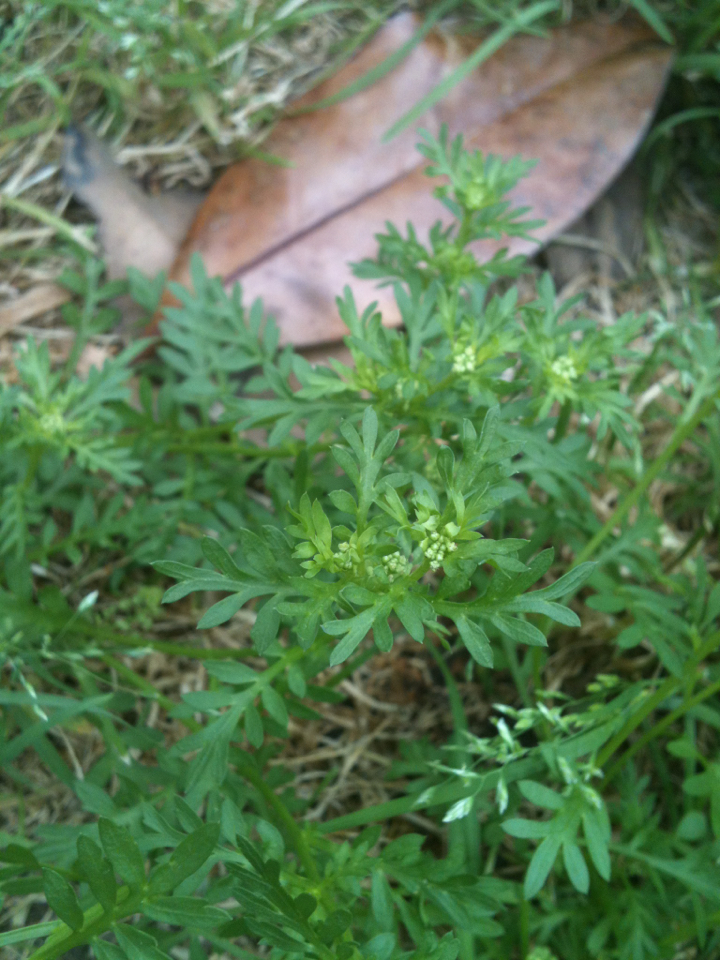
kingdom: Plantae
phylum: Tracheophyta
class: Magnoliopsida
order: Brassicales
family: Brassicaceae
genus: Lepidium
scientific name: Lepidium didymum
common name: Lesser swinecress
